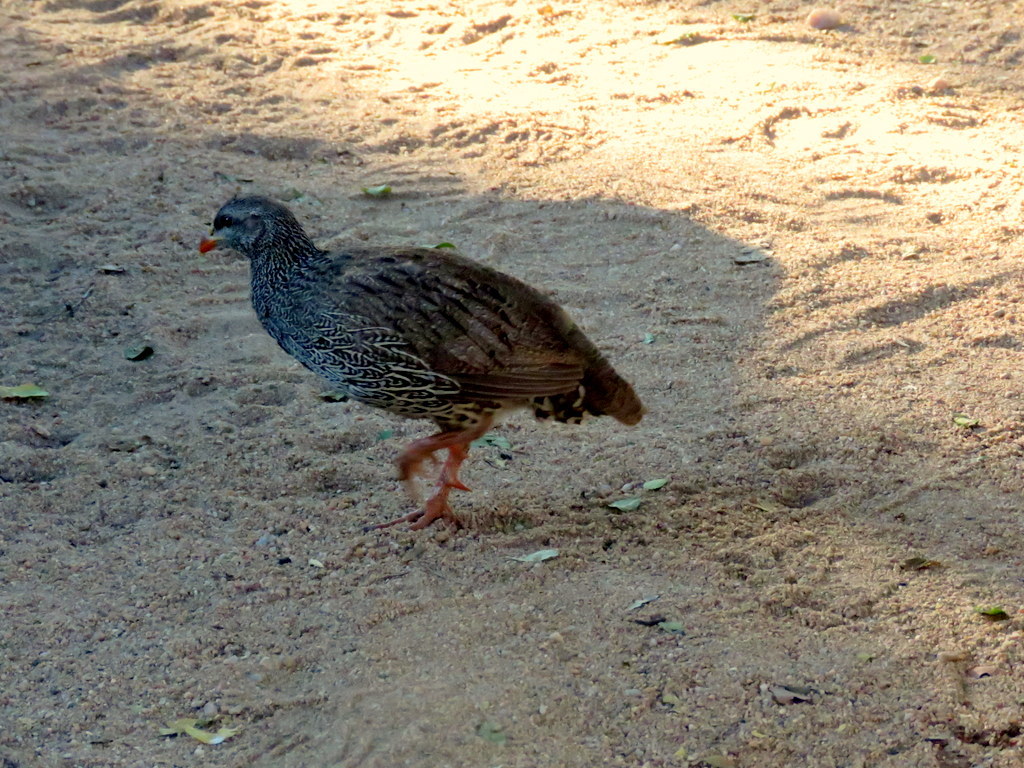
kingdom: Animalia
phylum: Chordata
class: Aves
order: Galliformes
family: Phasianidae
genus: Pternistis
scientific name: Pternistis natalensis
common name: Natal spurfowl
